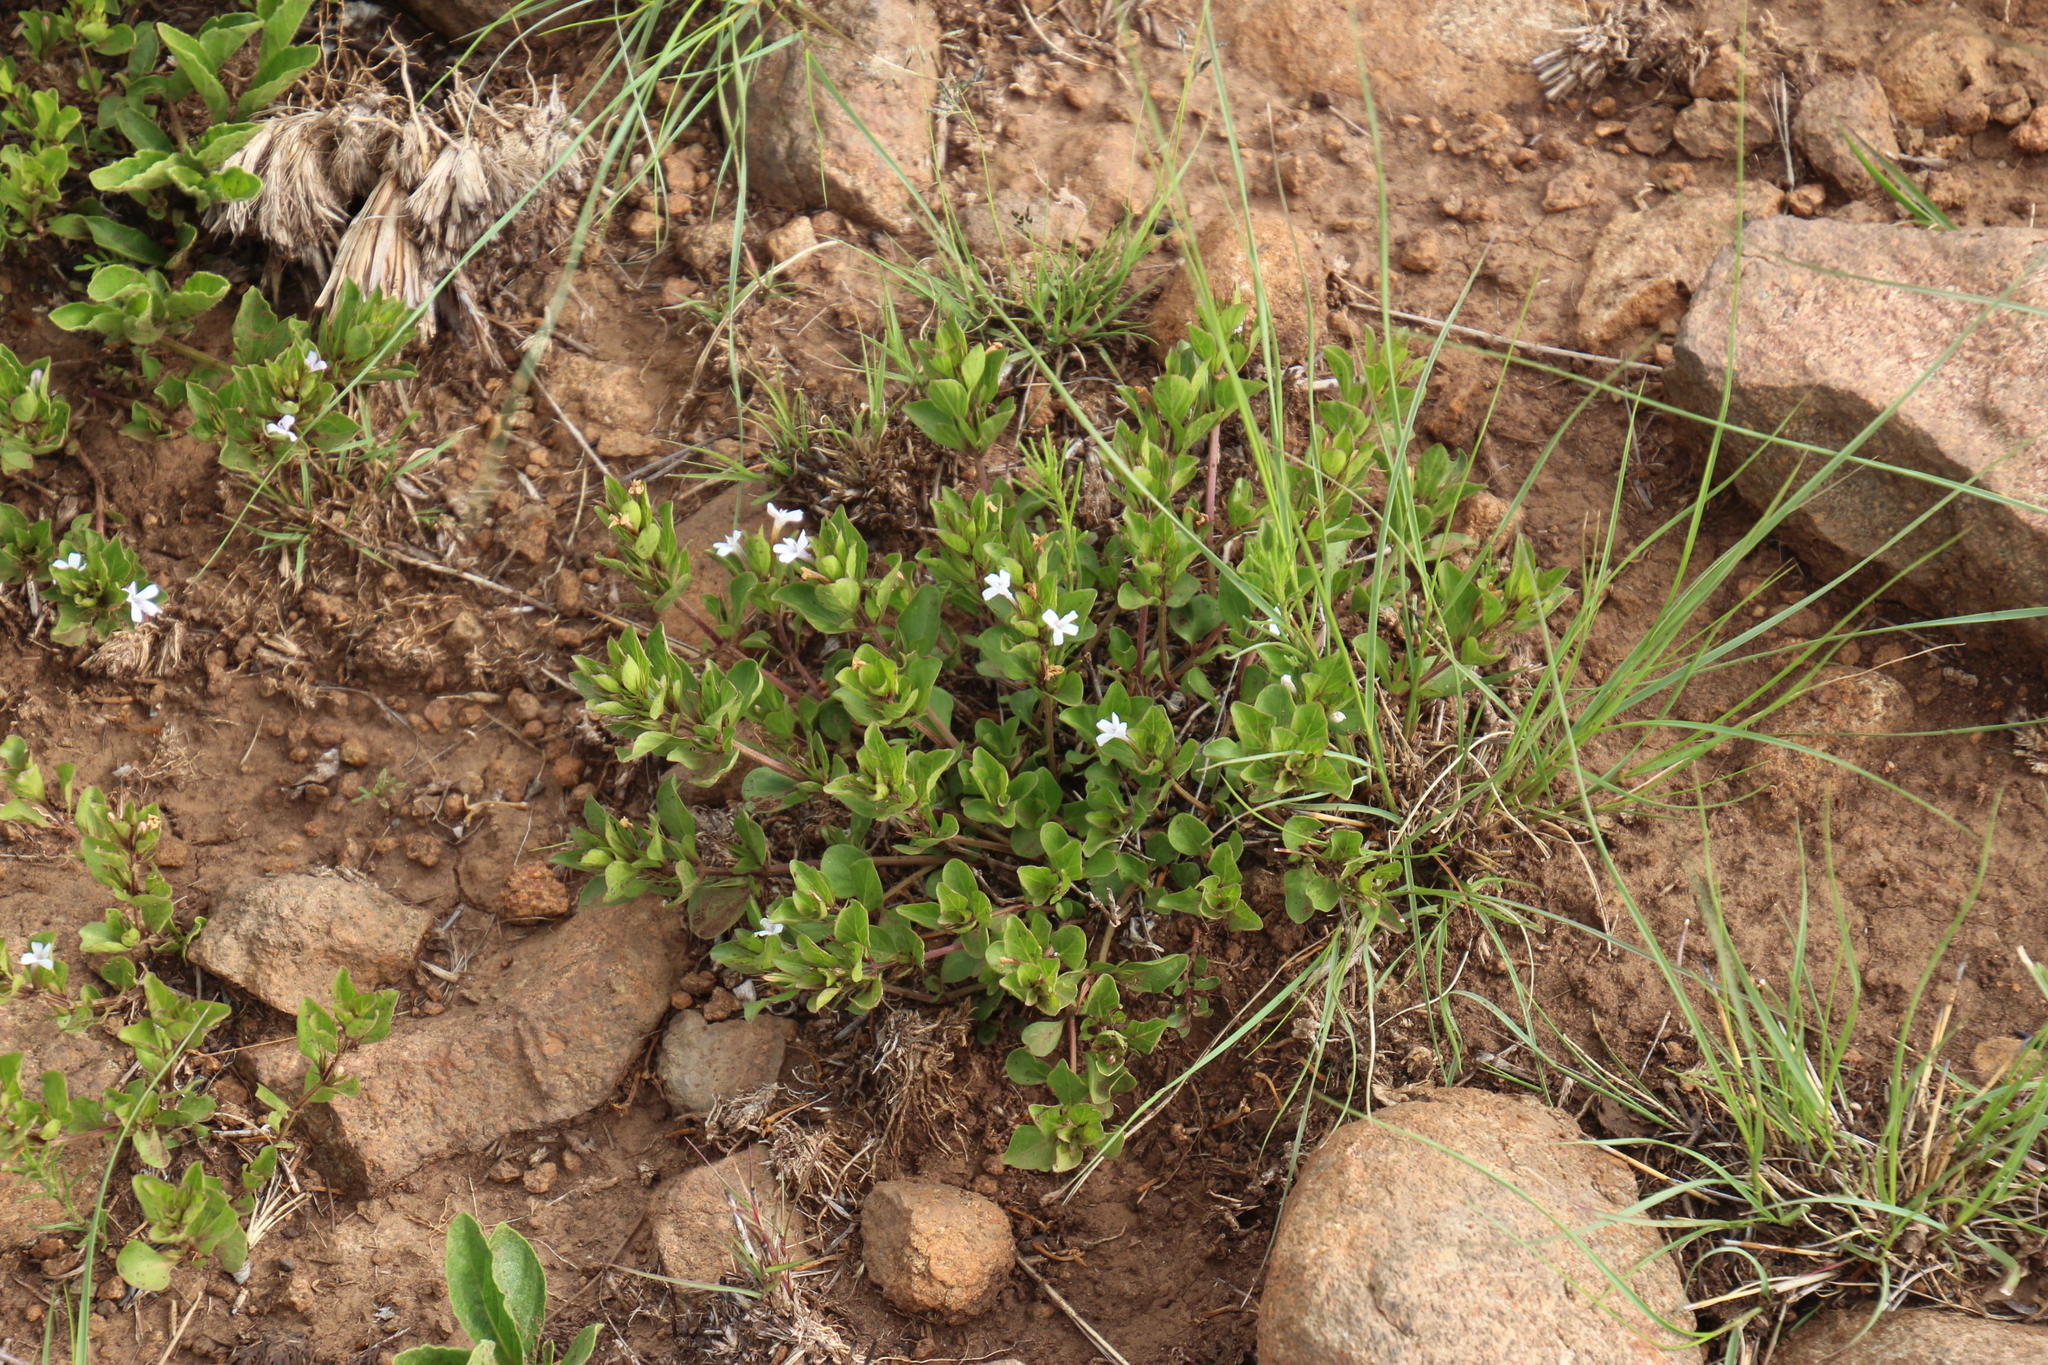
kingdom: Plantae
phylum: Tracheophyta
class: Magnoliopsida
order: Lamiales
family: Acanthaceae
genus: Dyschoriste
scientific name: Dyschoriste radicans
